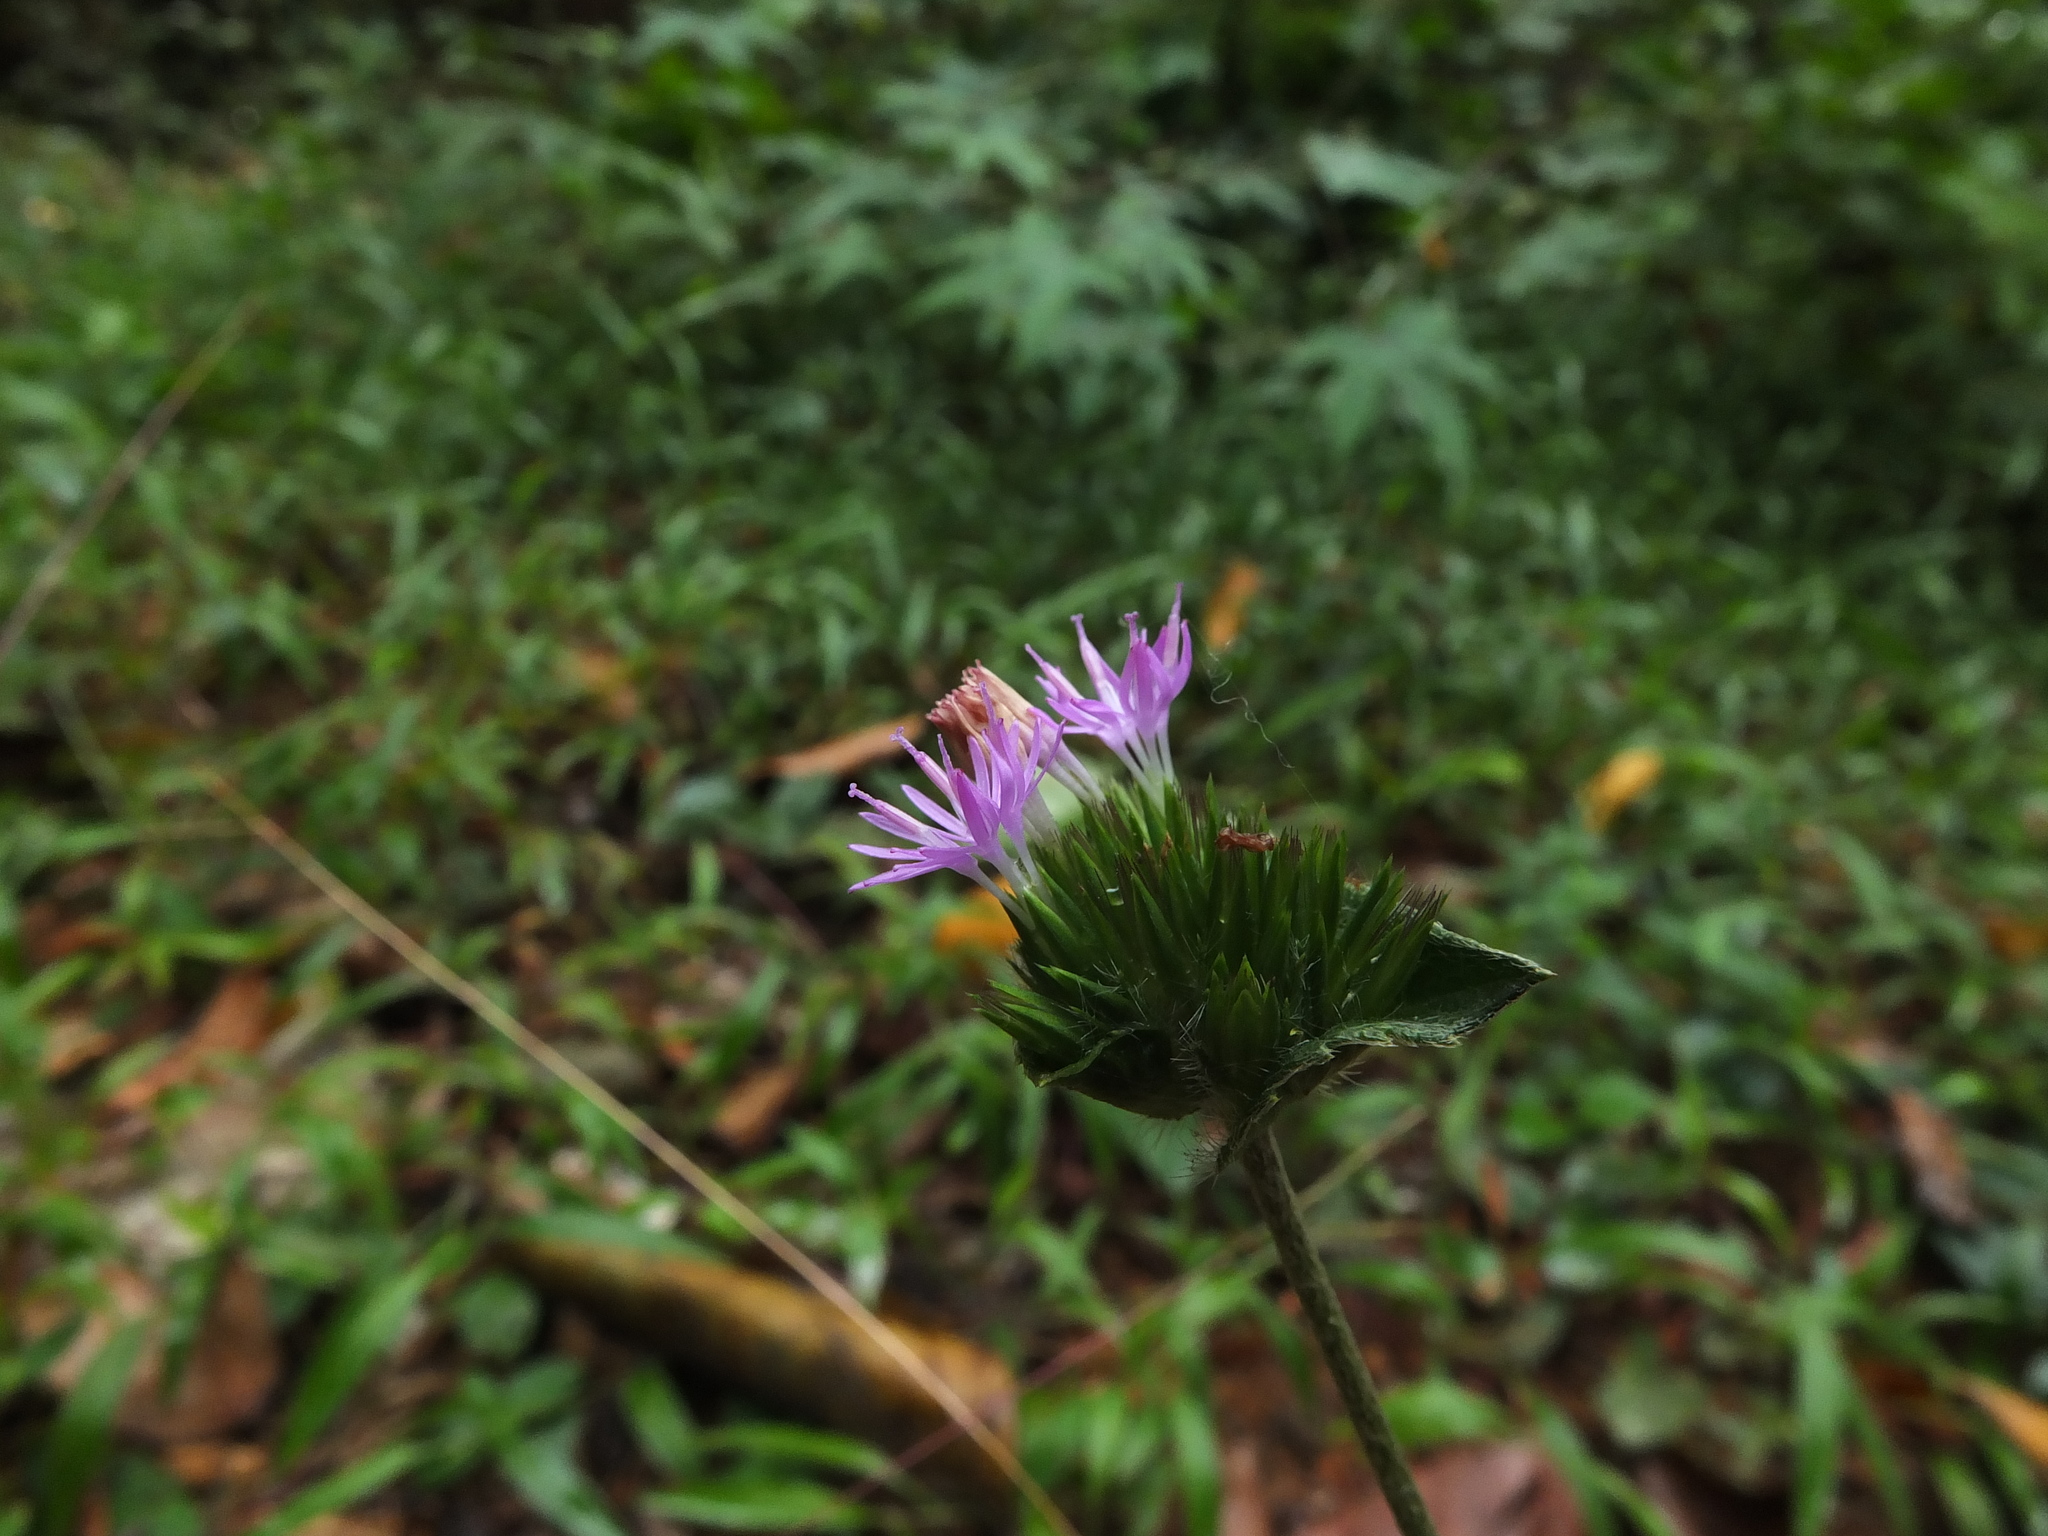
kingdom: Plantae
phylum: Tracheophyta
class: Magnoliopsida
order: Asterales
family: Asteraceae
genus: Elephantopus
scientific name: Elephantopus scaber
